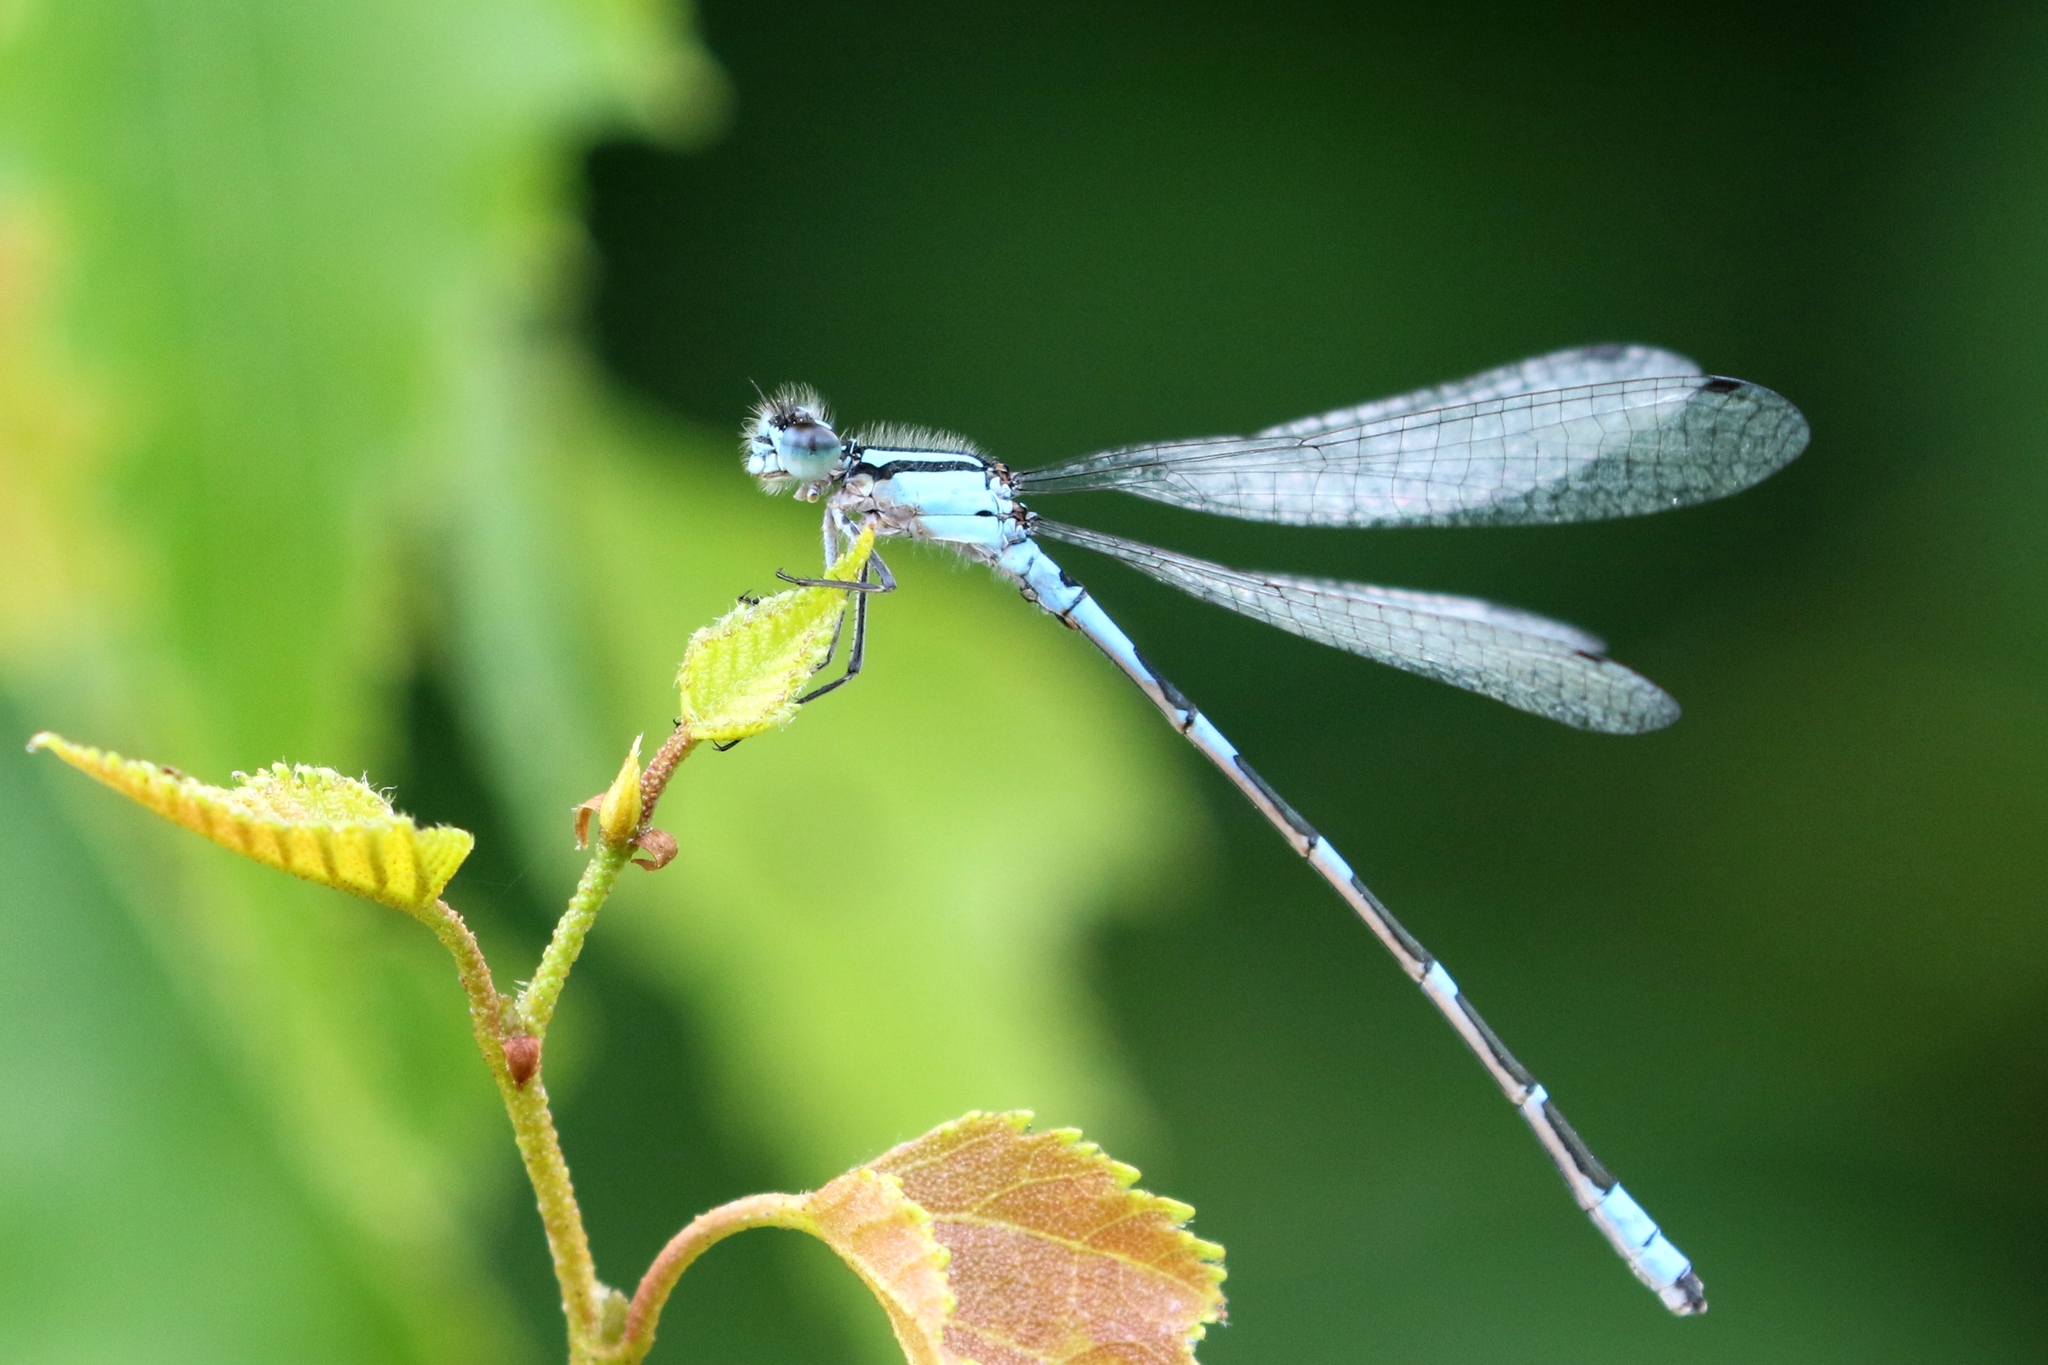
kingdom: Animalia
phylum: Arthropoda
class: Insecta
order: Odonata
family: Coenagrionidae
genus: Enallagma
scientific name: Enallagma carunculatum
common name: Tule bluet
